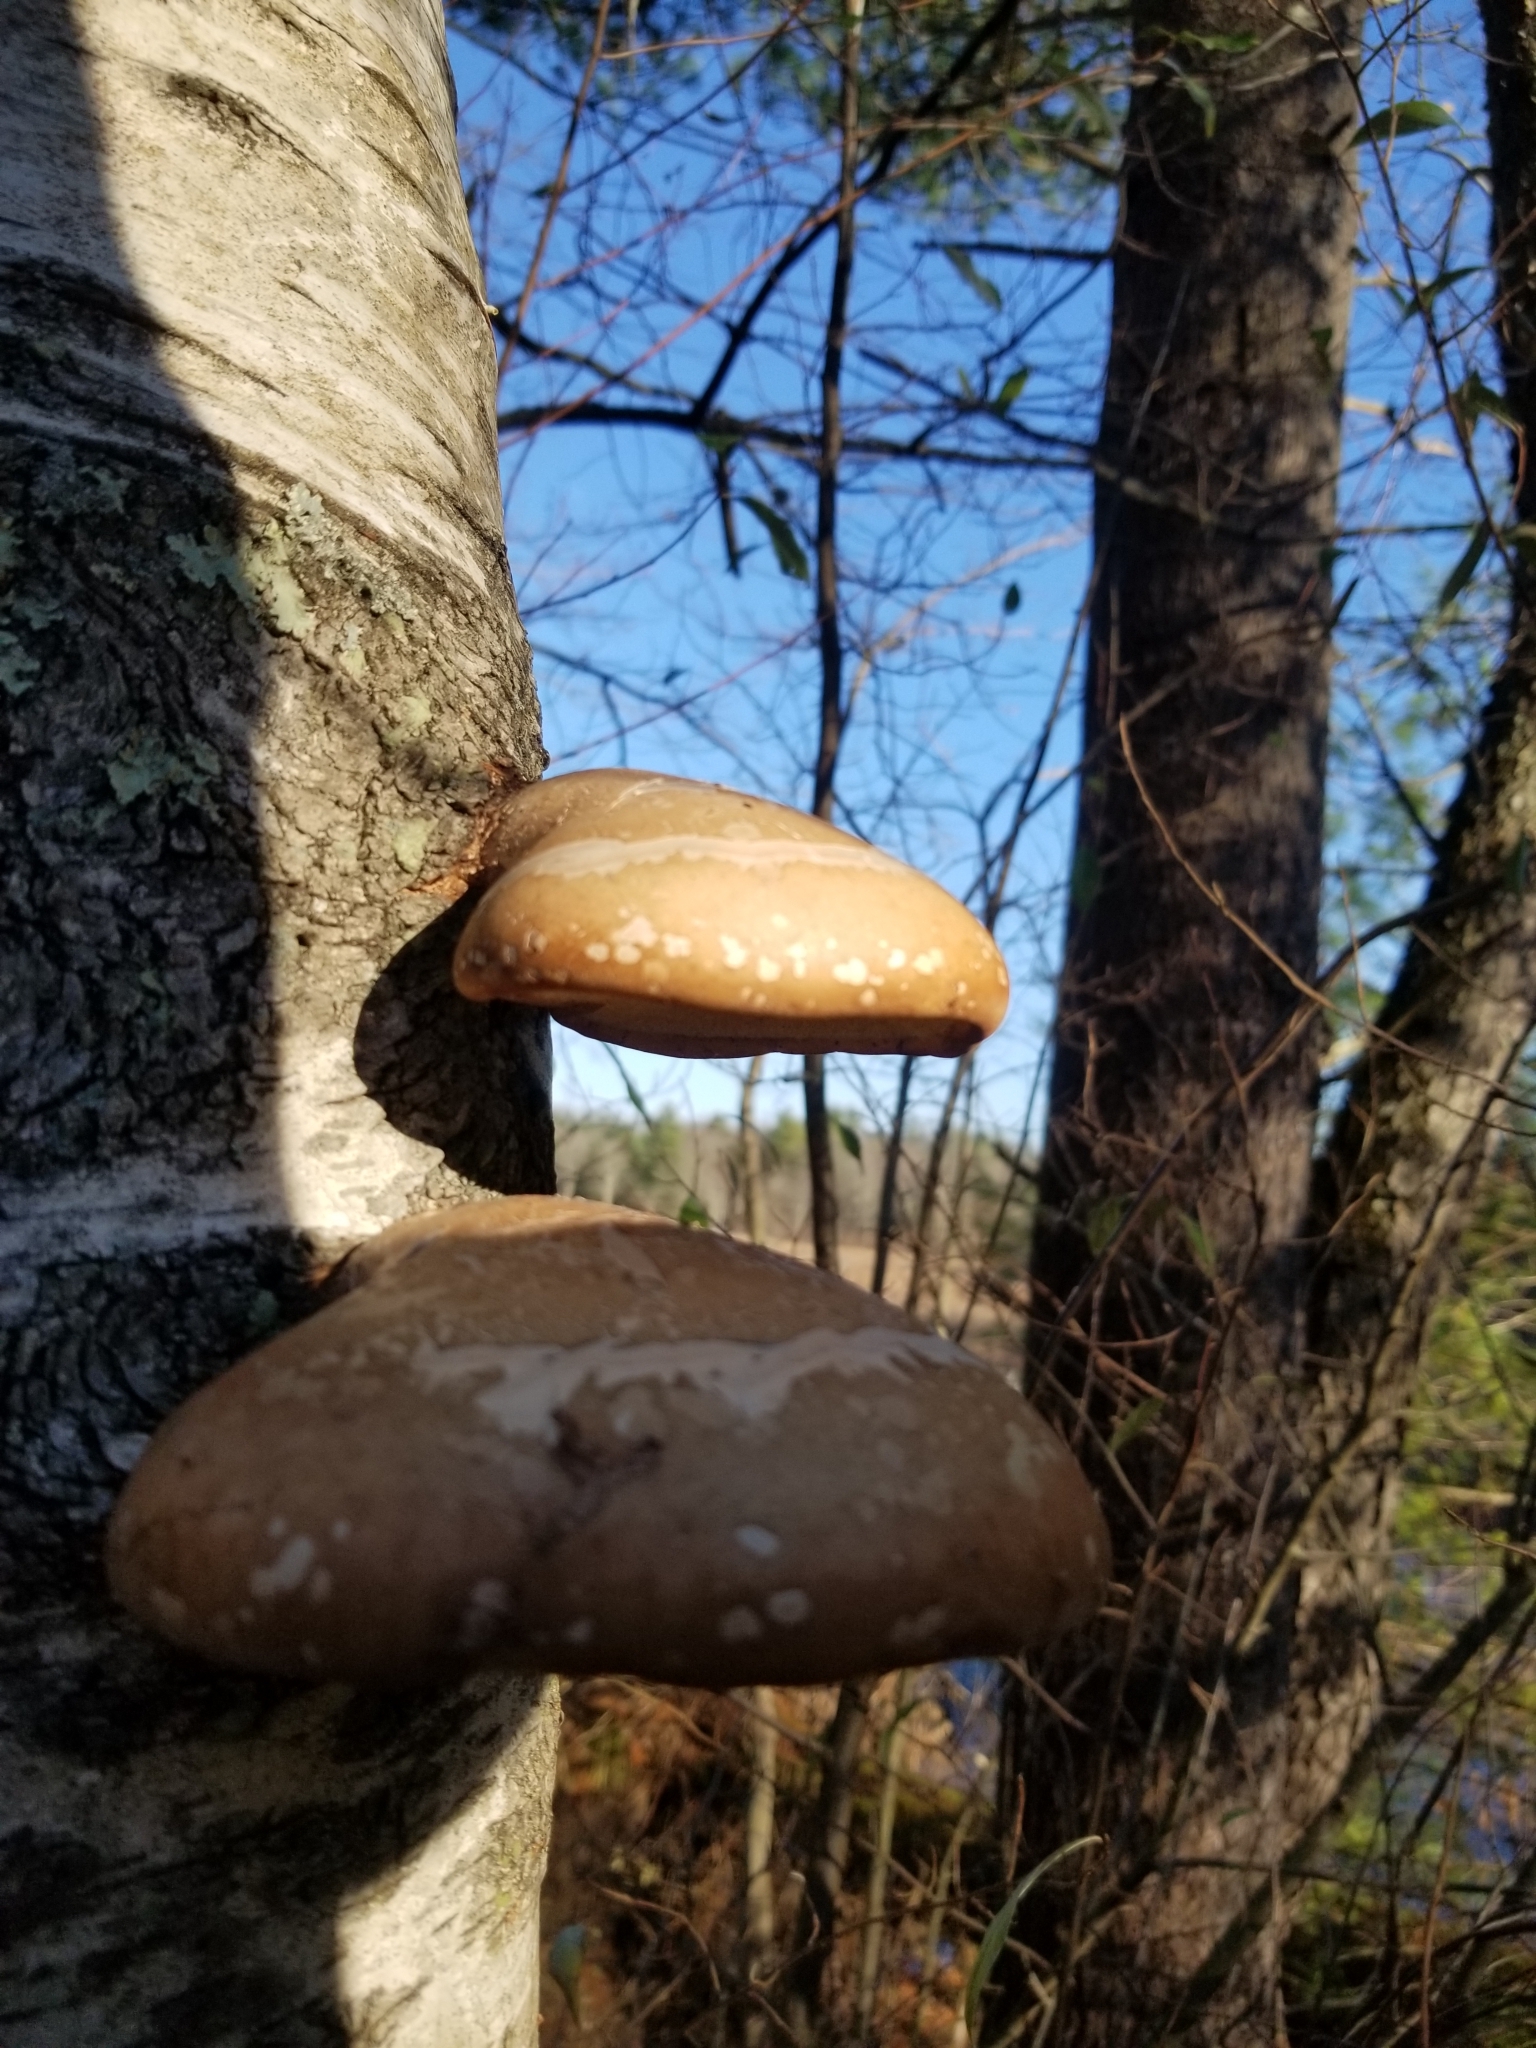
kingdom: Fungi
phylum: Basidiomycota
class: Agaricomycetes
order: Polyporales
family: Fomitopsidaceae
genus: Fomitopsis
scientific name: Fomitopsis betulina
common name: Birch polypore
